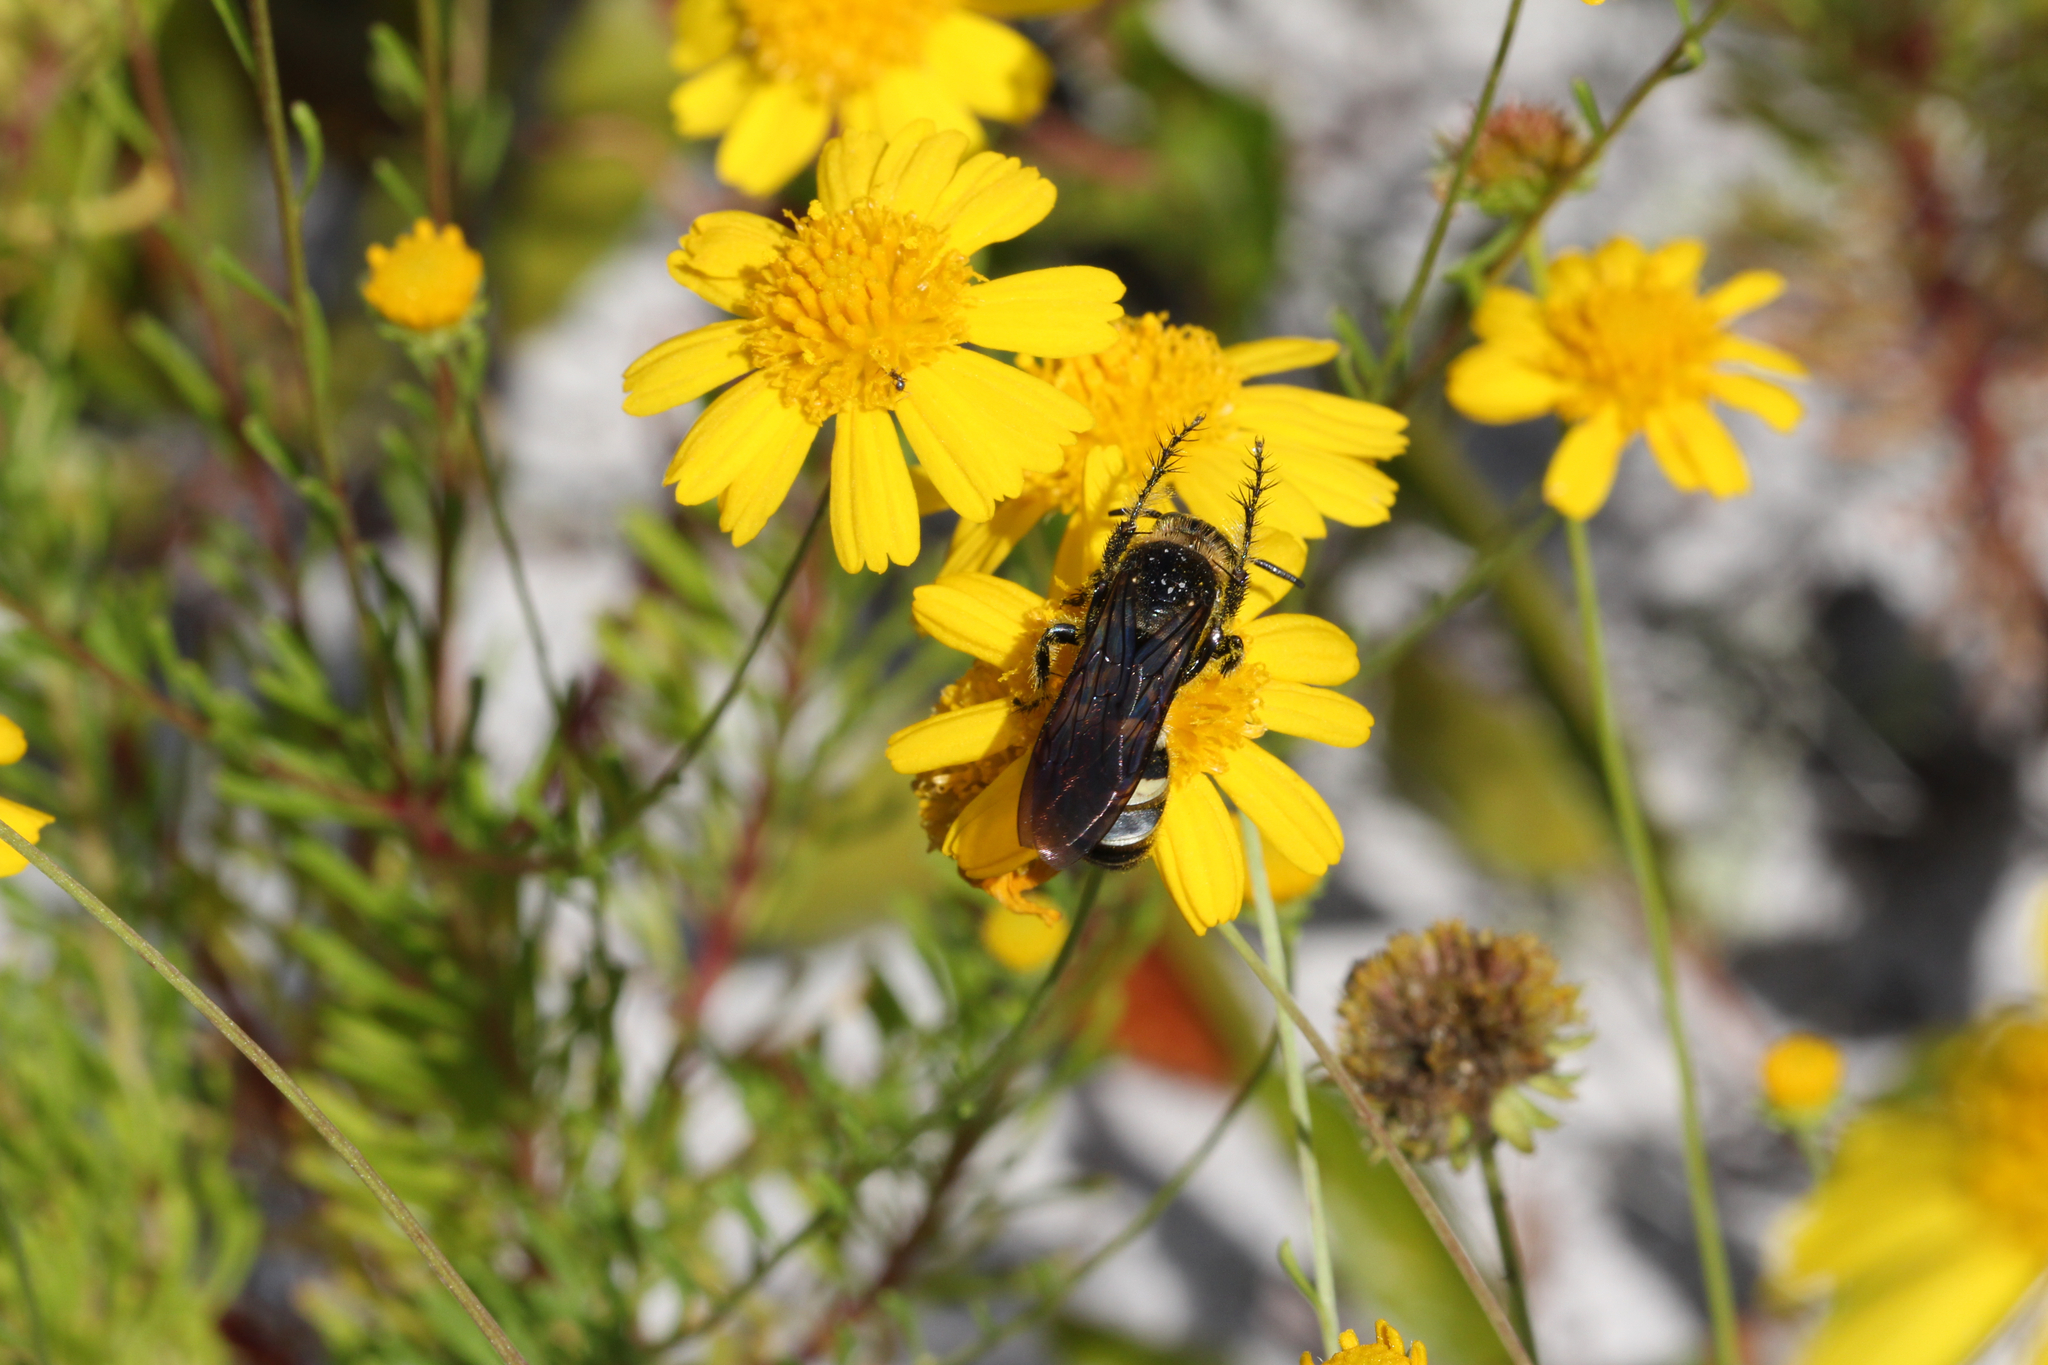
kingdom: Animalia
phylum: Arthropoda
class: Insecta
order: Hymenoptera
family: Scoliidae
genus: Dielis
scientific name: Dielis
